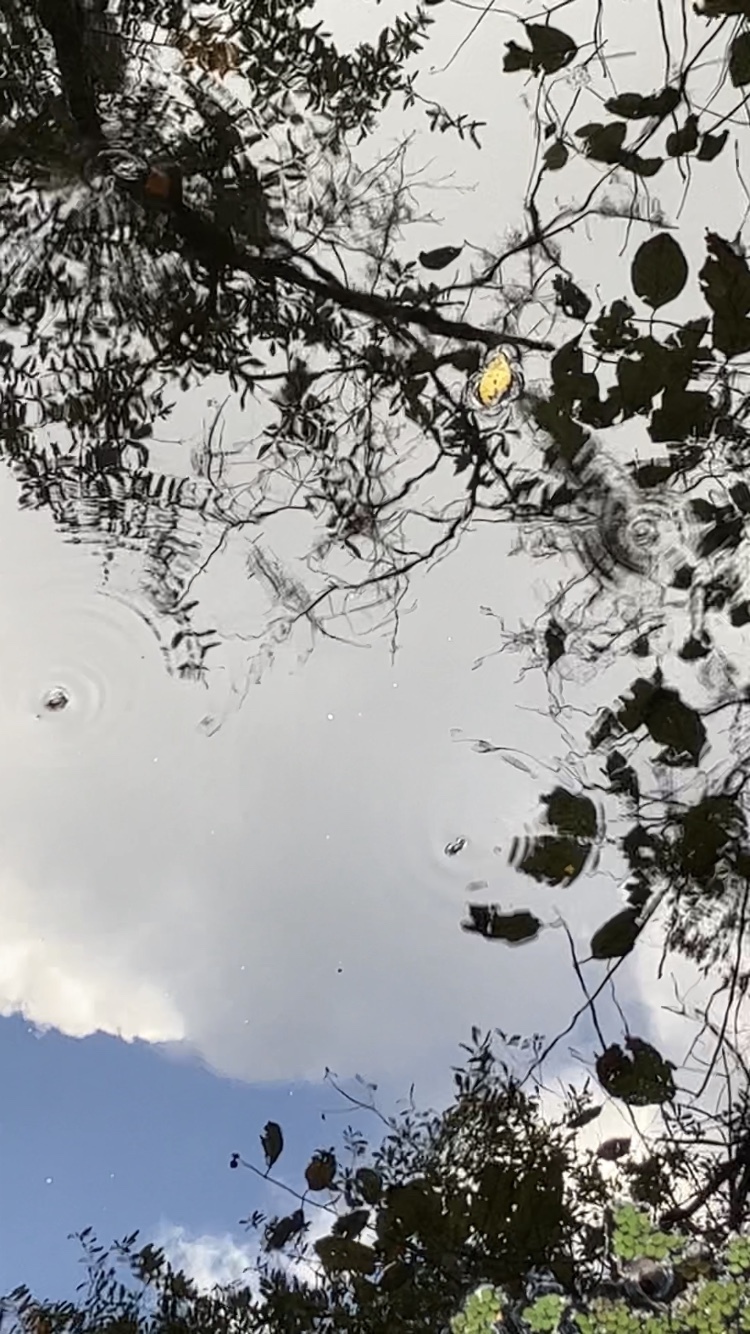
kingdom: Animalia
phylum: Arthropoda
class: Insecta
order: Coleoptera
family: Gyrinidae
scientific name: Gyrinidae
